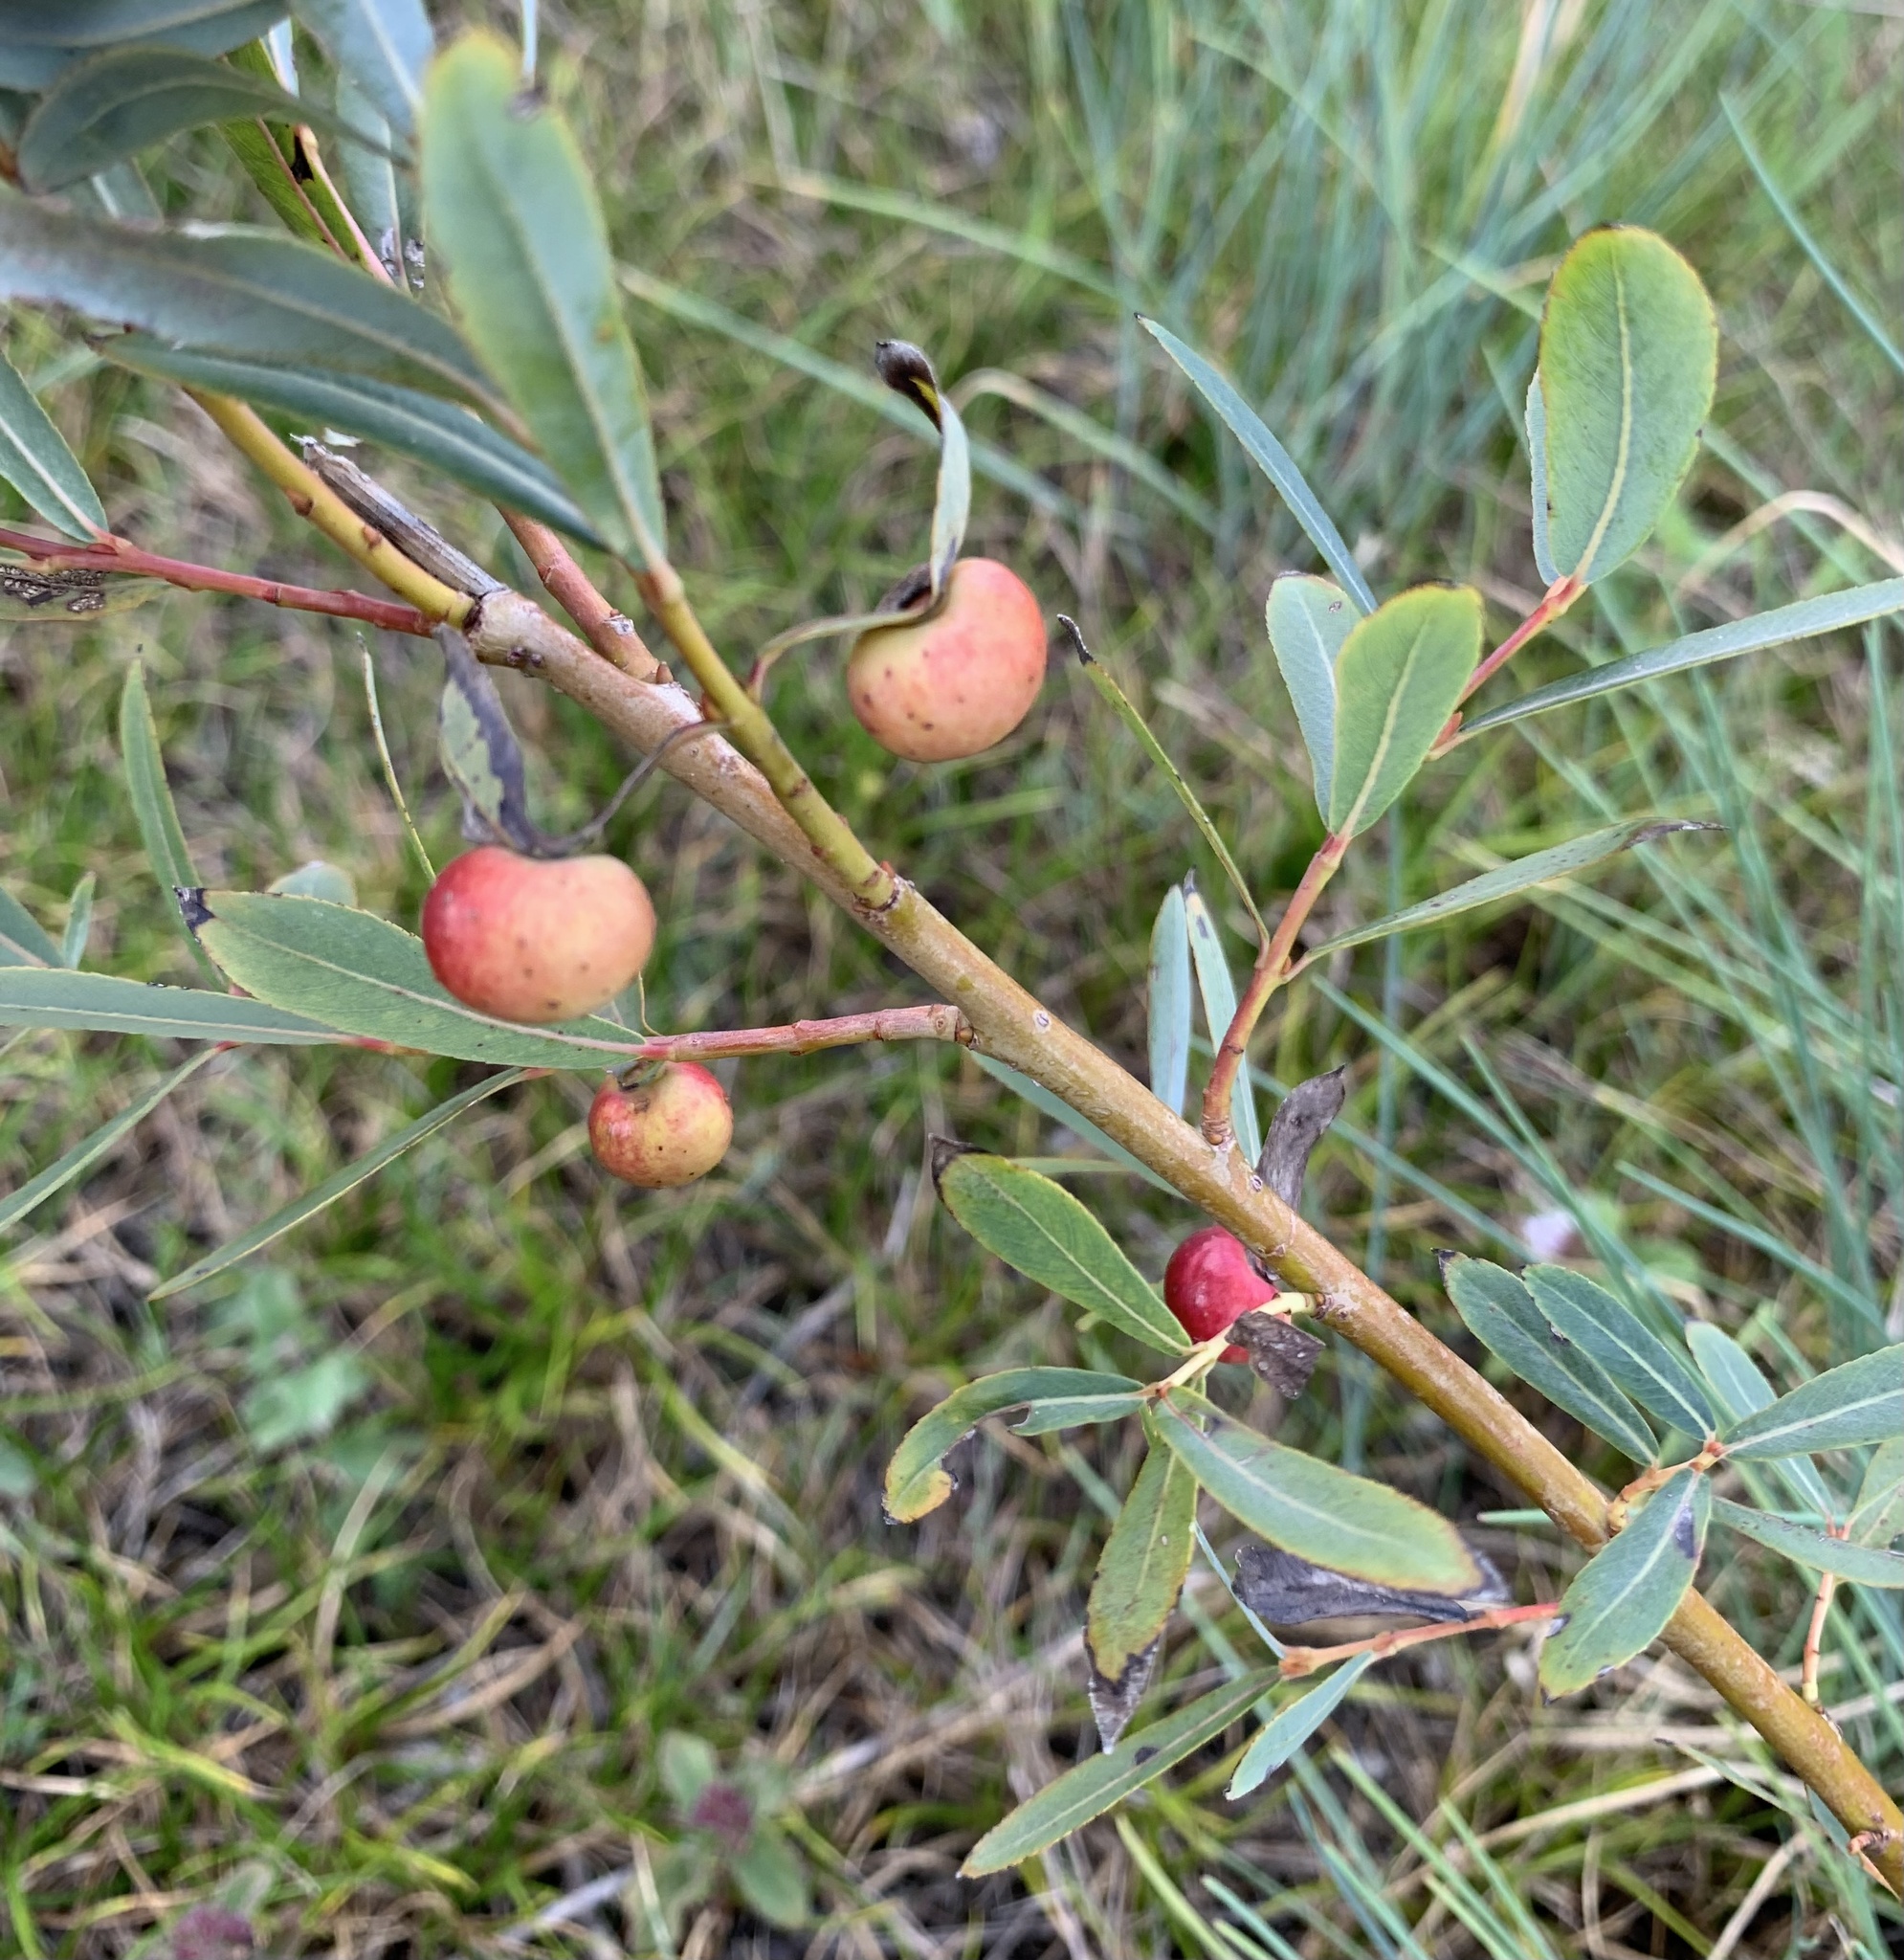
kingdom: Animalia
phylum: Arthropoda
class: Insecta
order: Hymenoptera
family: Tenthredinidae
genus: Euura
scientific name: Euura viminalis
